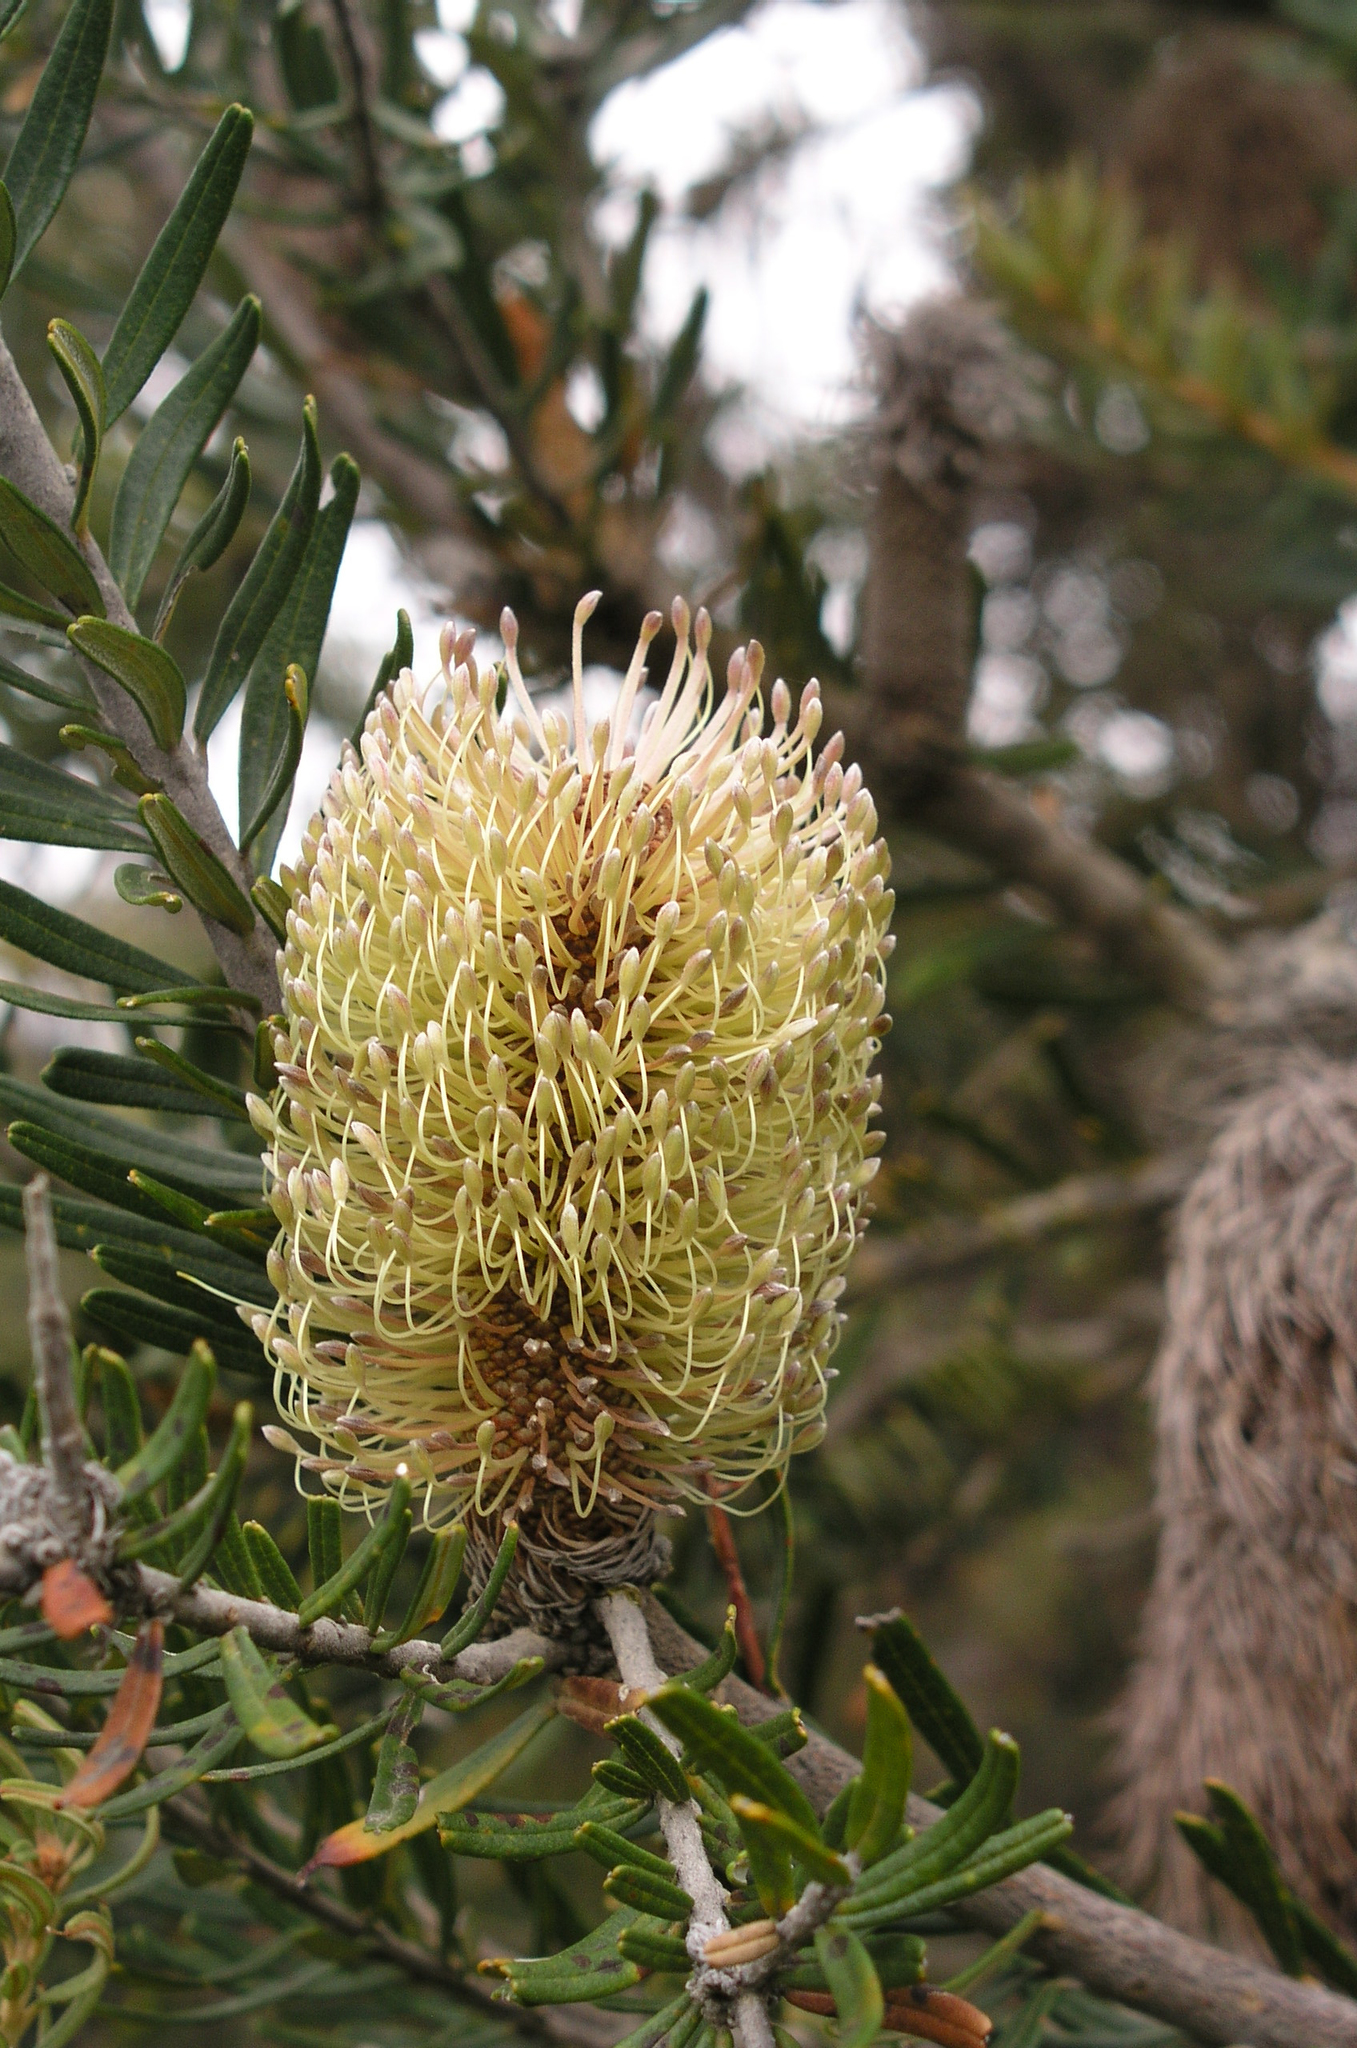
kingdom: Plantae
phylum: Tracheophyta
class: Magnoliopsida
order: Proteales
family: Proteaceae
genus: Banksia
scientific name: Banksia marginata
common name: Silver banksia
